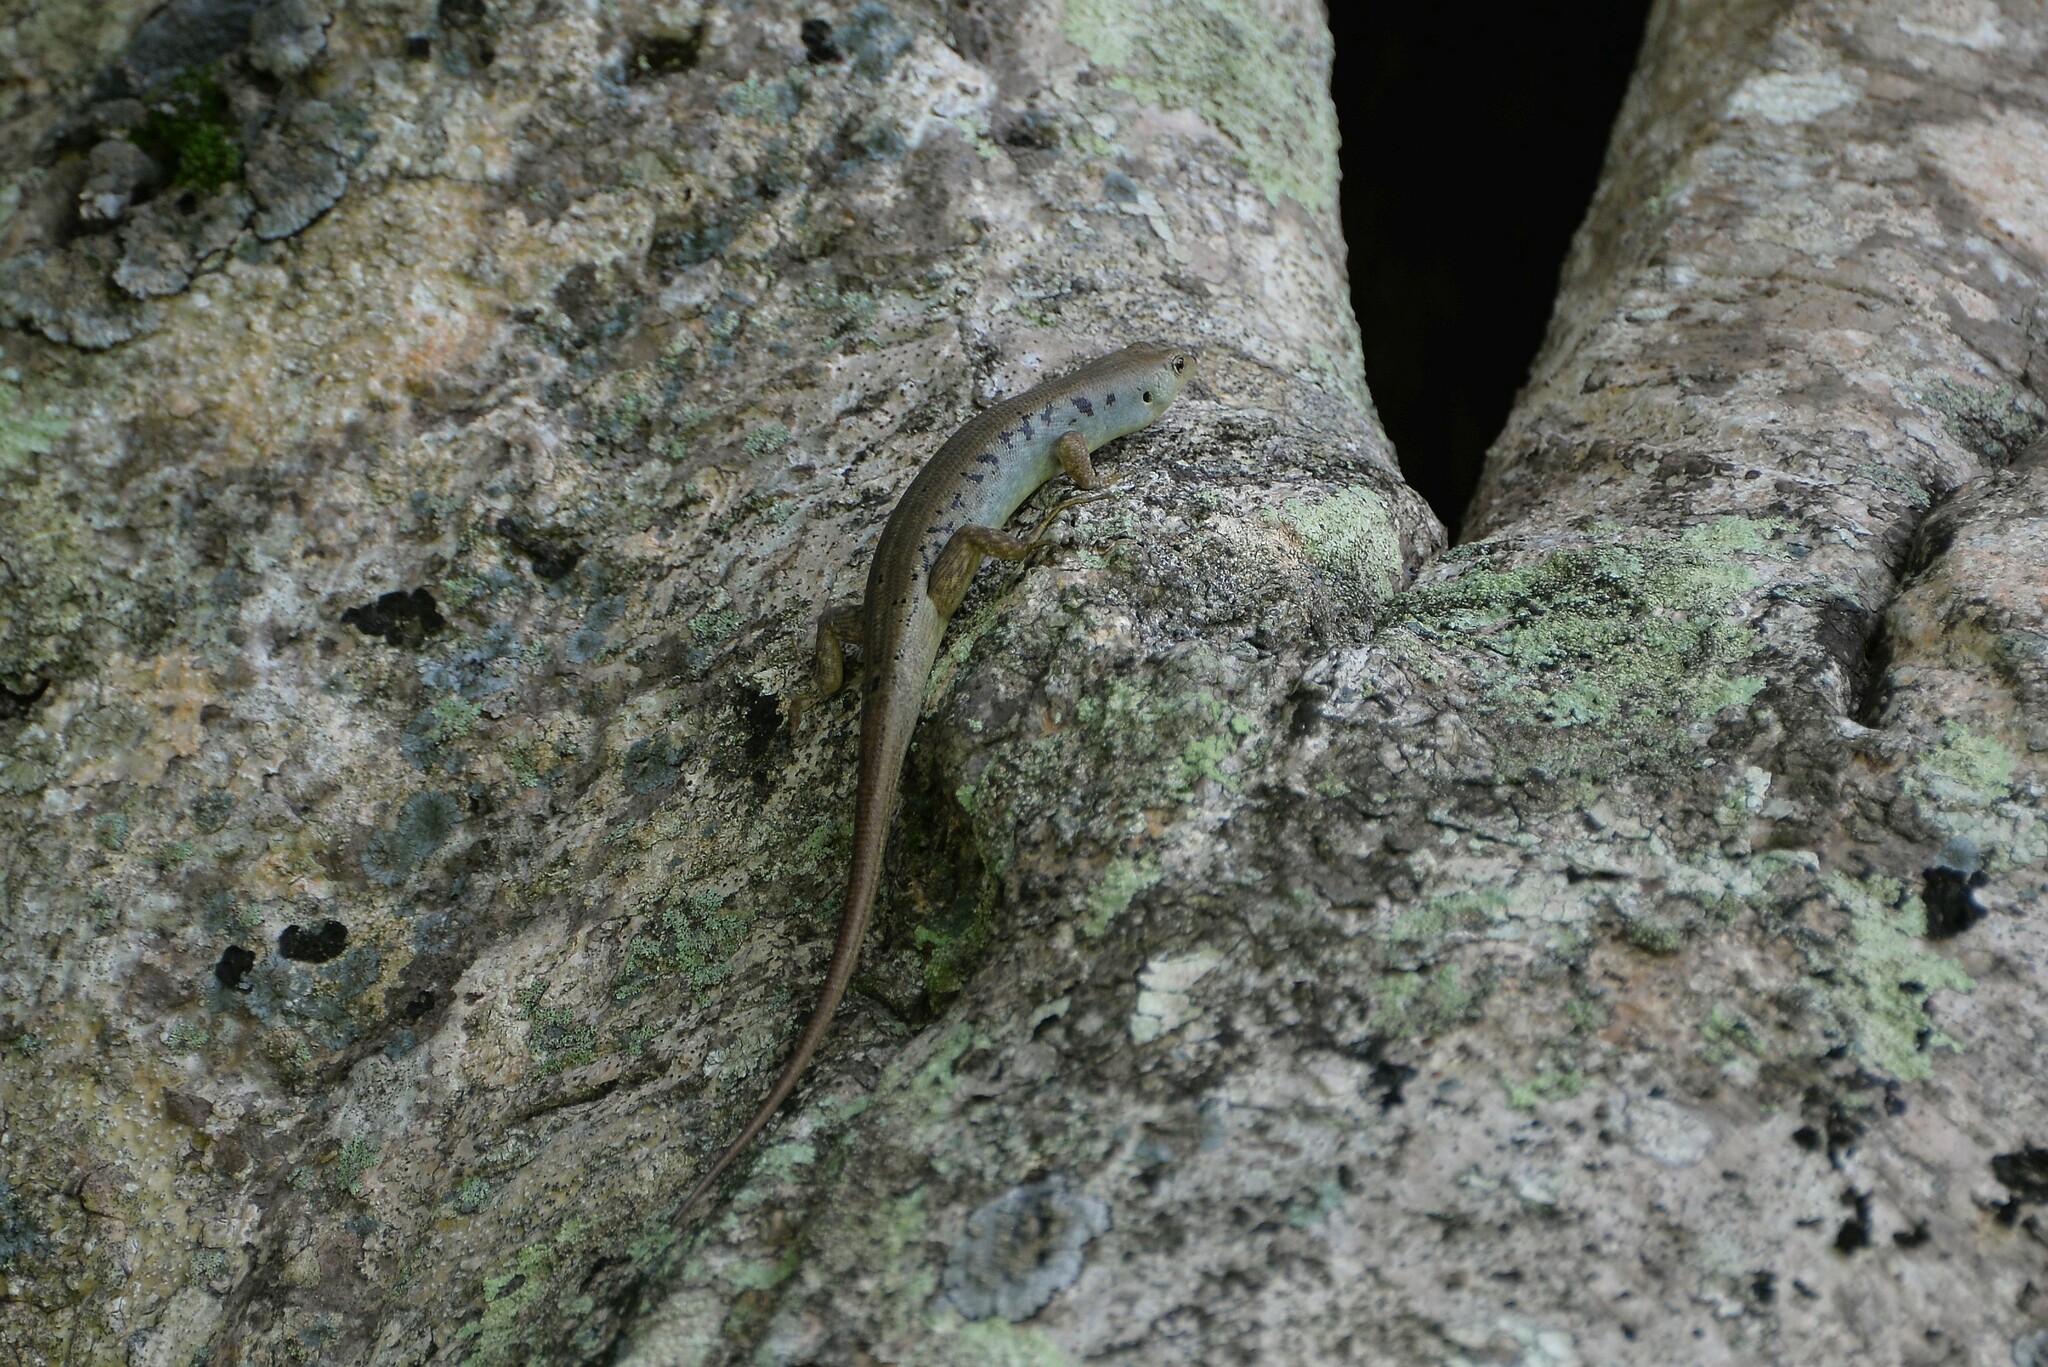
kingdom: Animalia
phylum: Chordata
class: Squamata
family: Scincidae
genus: Emoia
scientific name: Emoia aneityumensis
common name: Medway's emo skink
